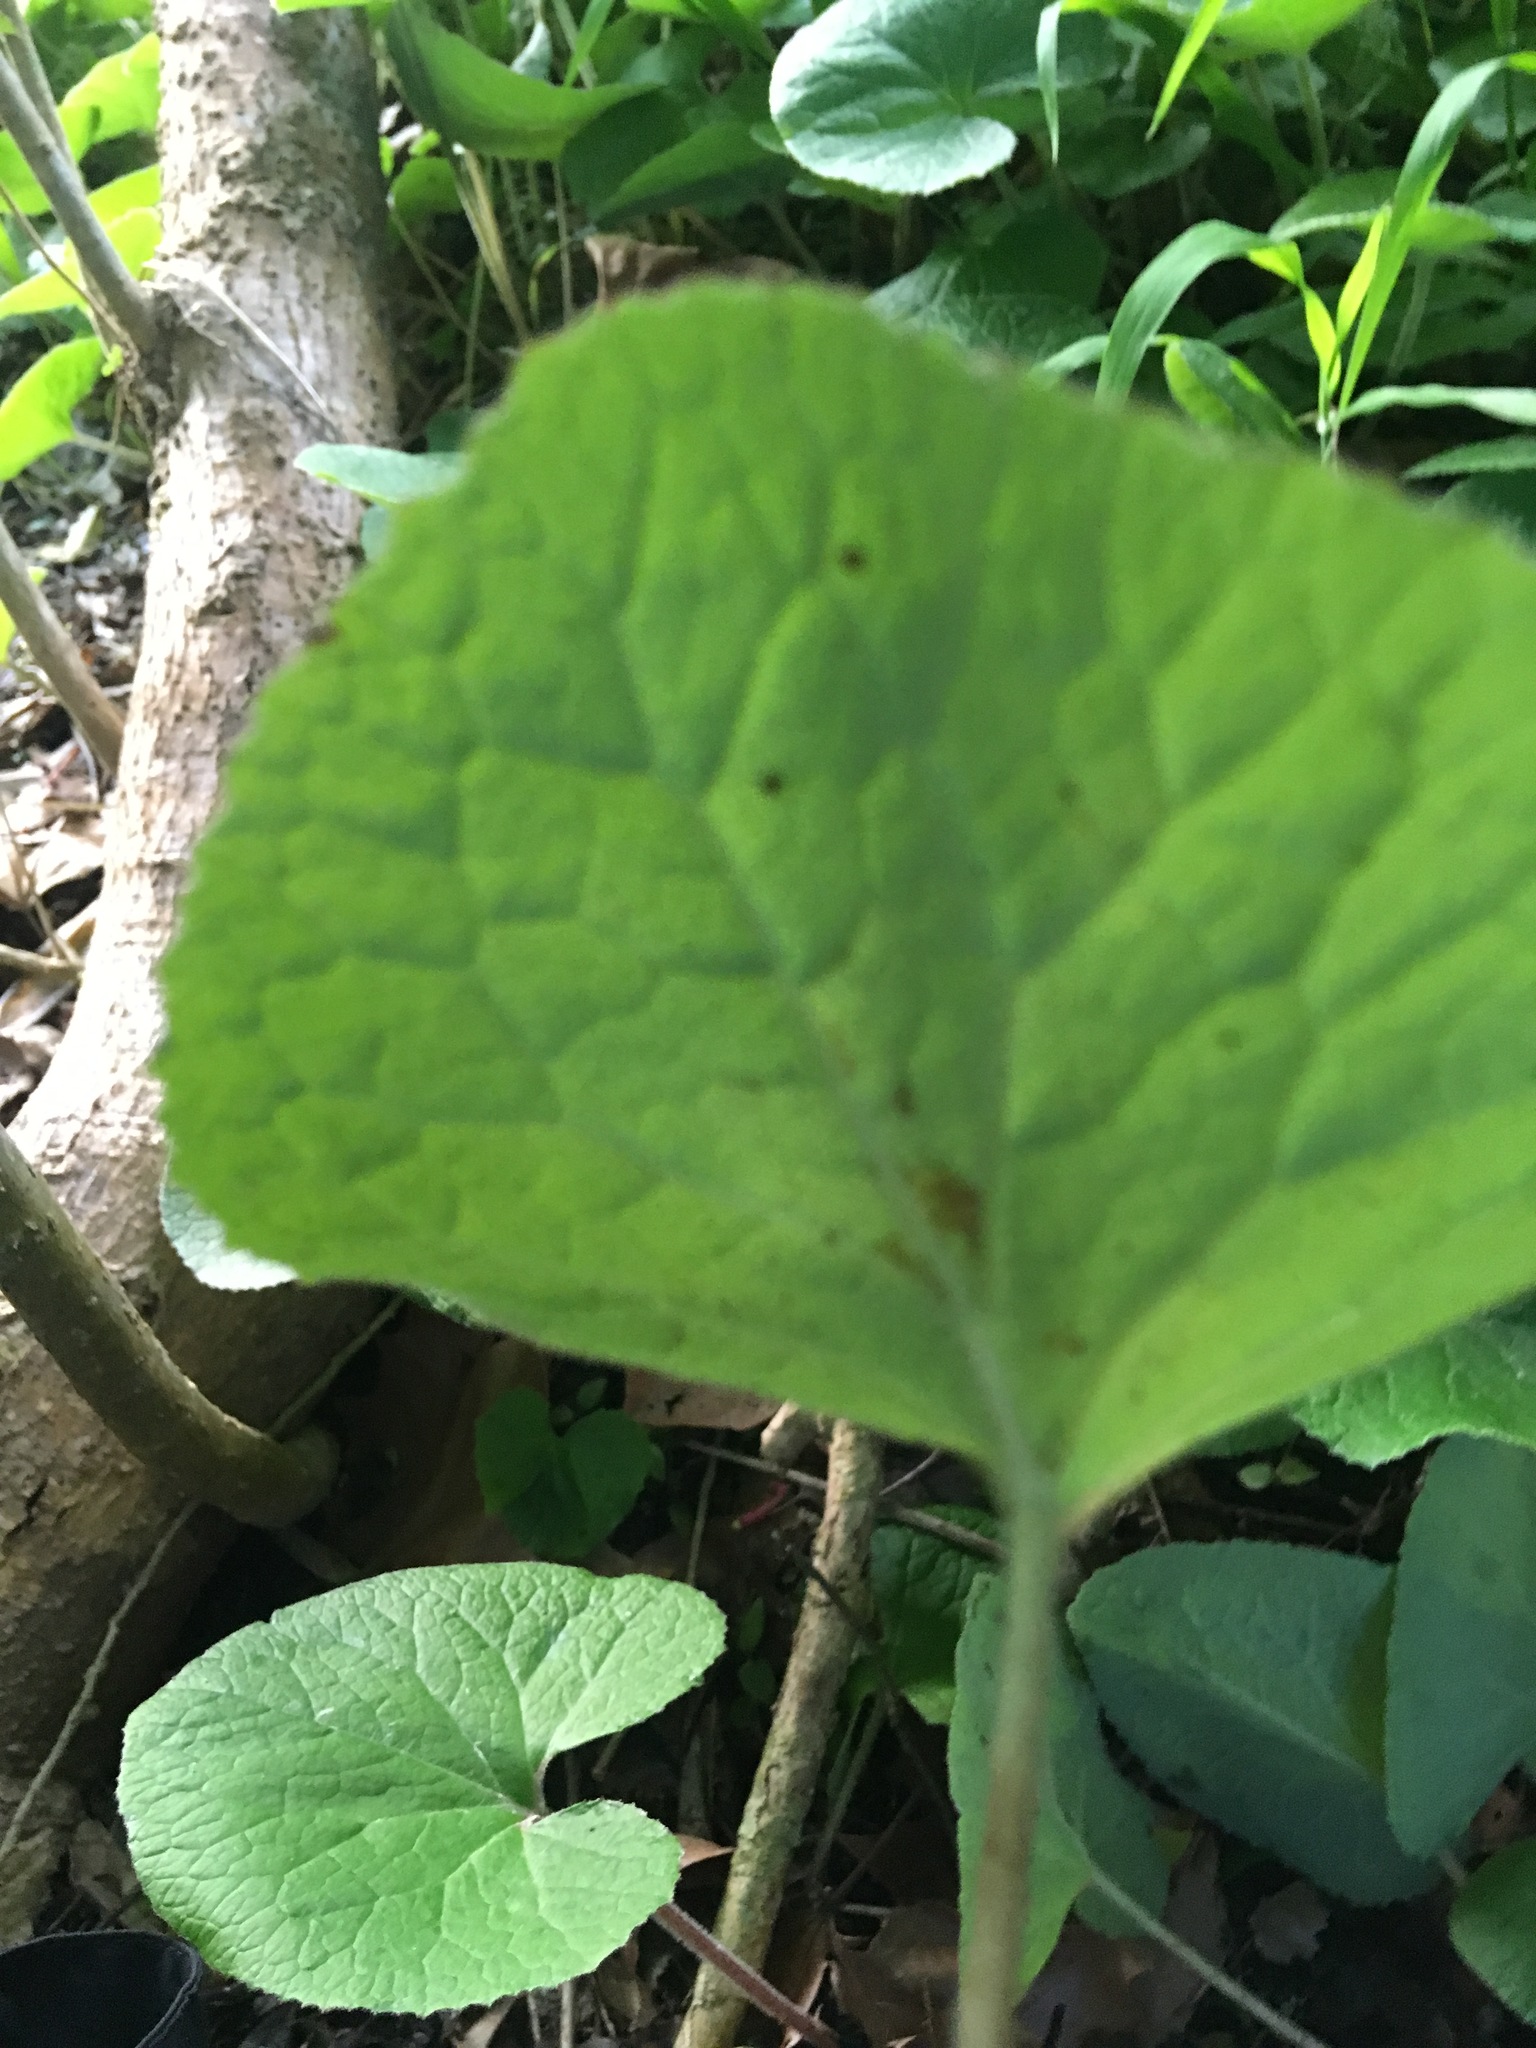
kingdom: Plantae
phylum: Tracheophyta
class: Magnoliopsida
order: Asterales
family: Asteraceae
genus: Petasites
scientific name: Petasites pyrenaicus
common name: Winter heliotrope
